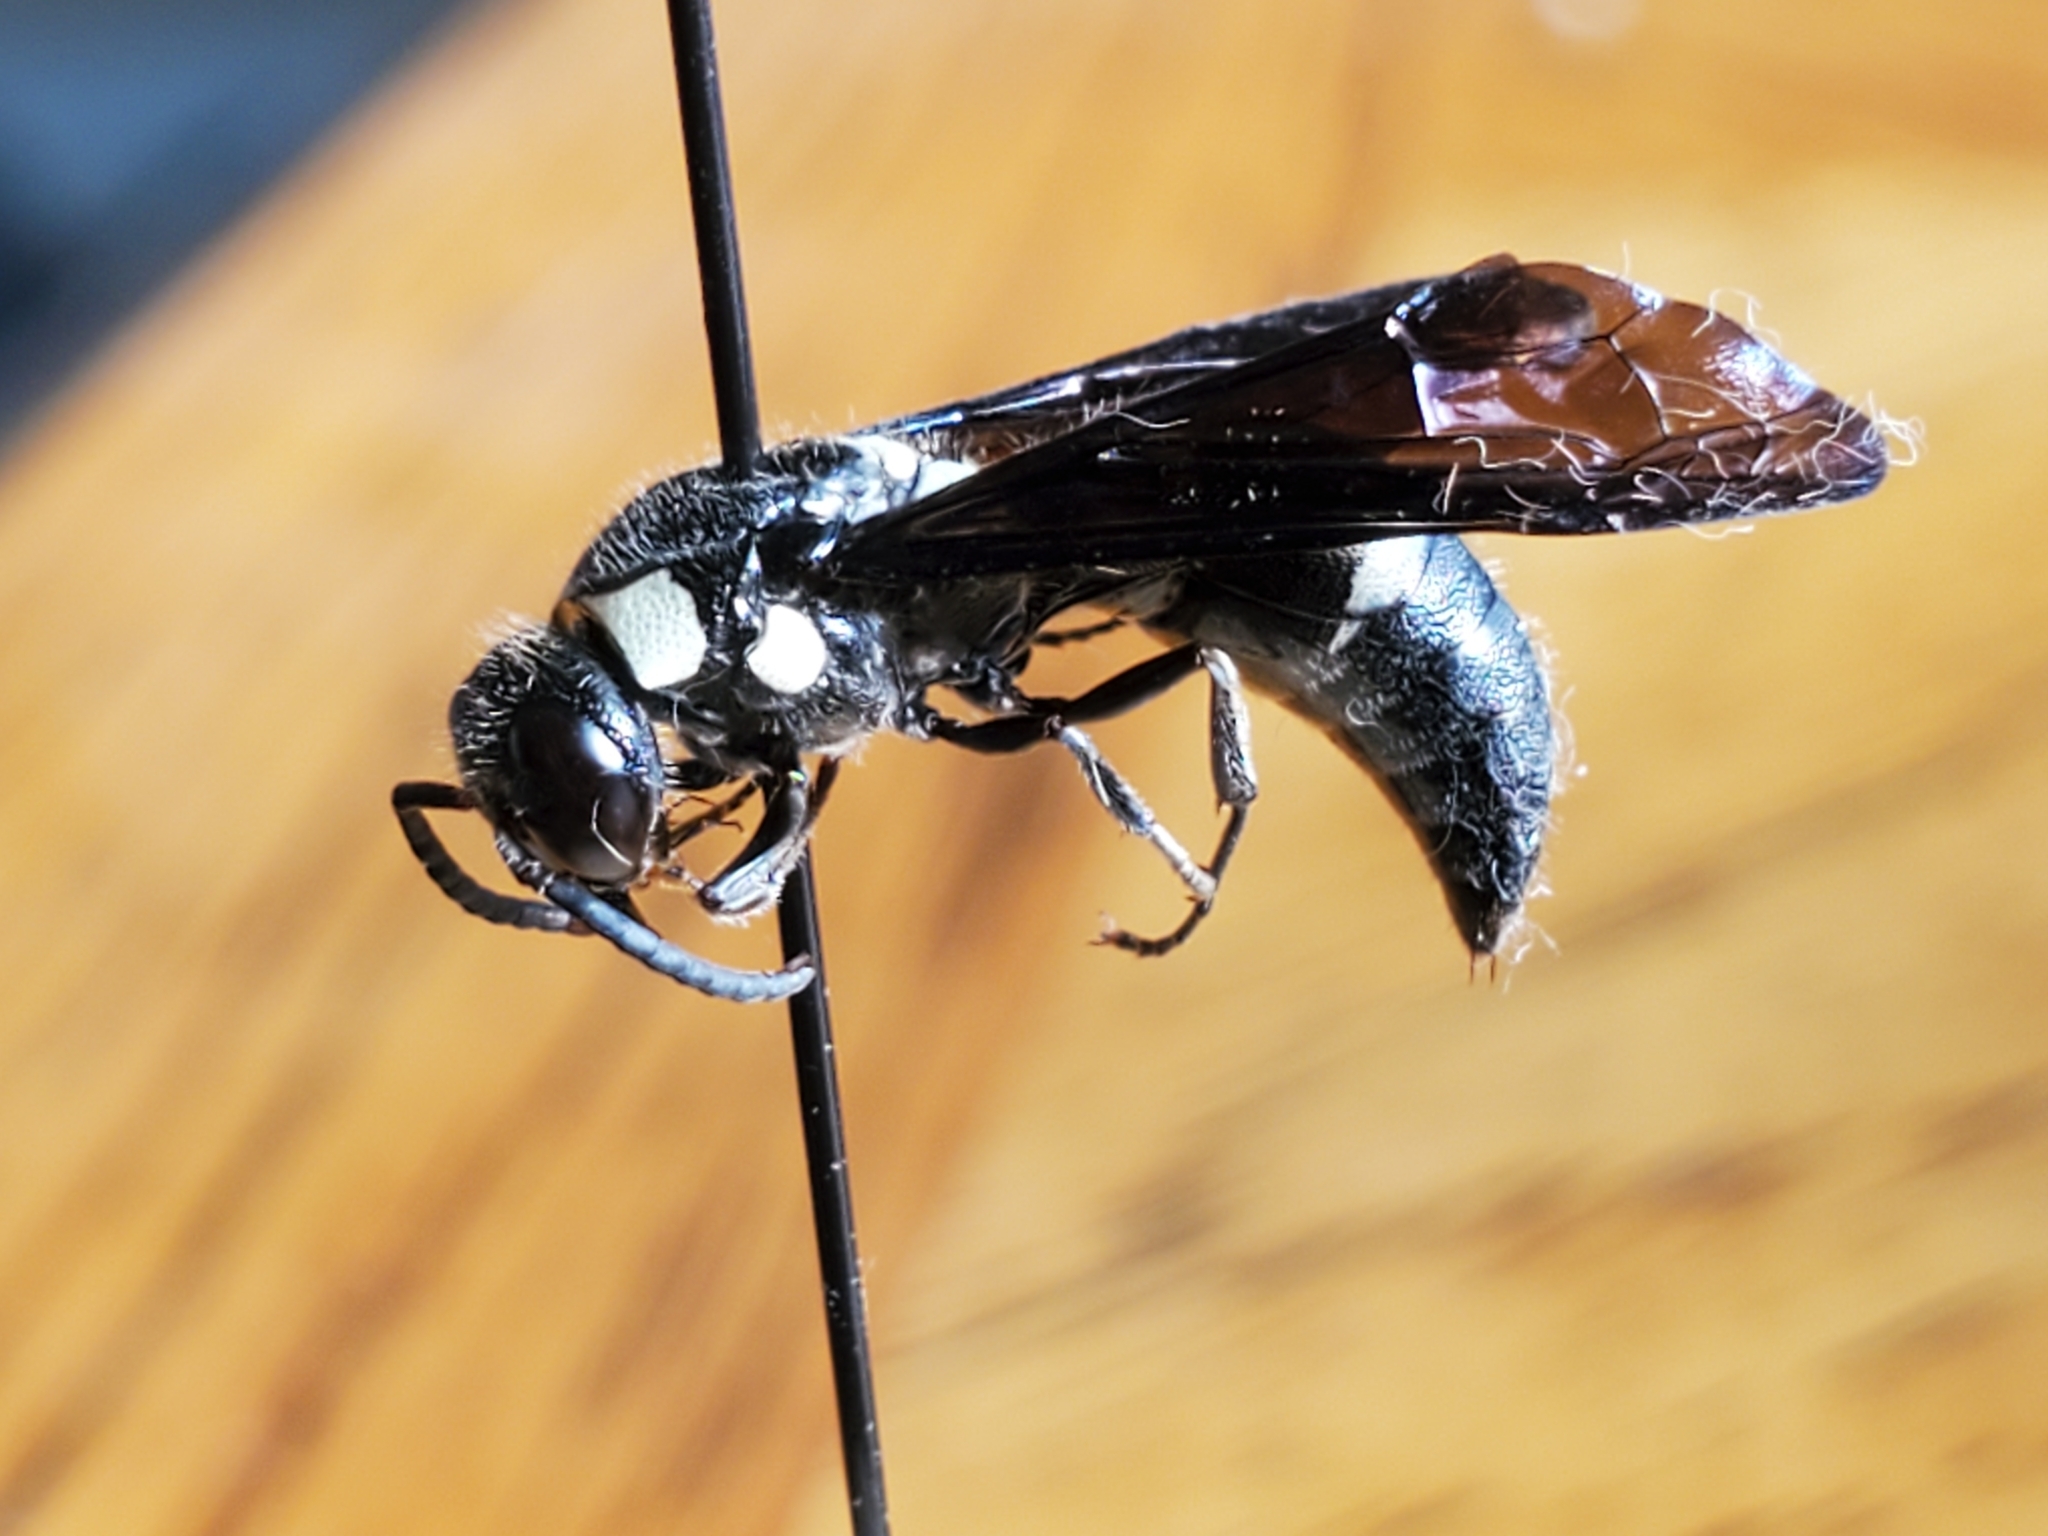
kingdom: Animalia
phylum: Arthropoda
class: Insecta
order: Hymenoptera
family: Eumenidae
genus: Pseudodynerus
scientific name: Pseudodynerus quadrisectus
